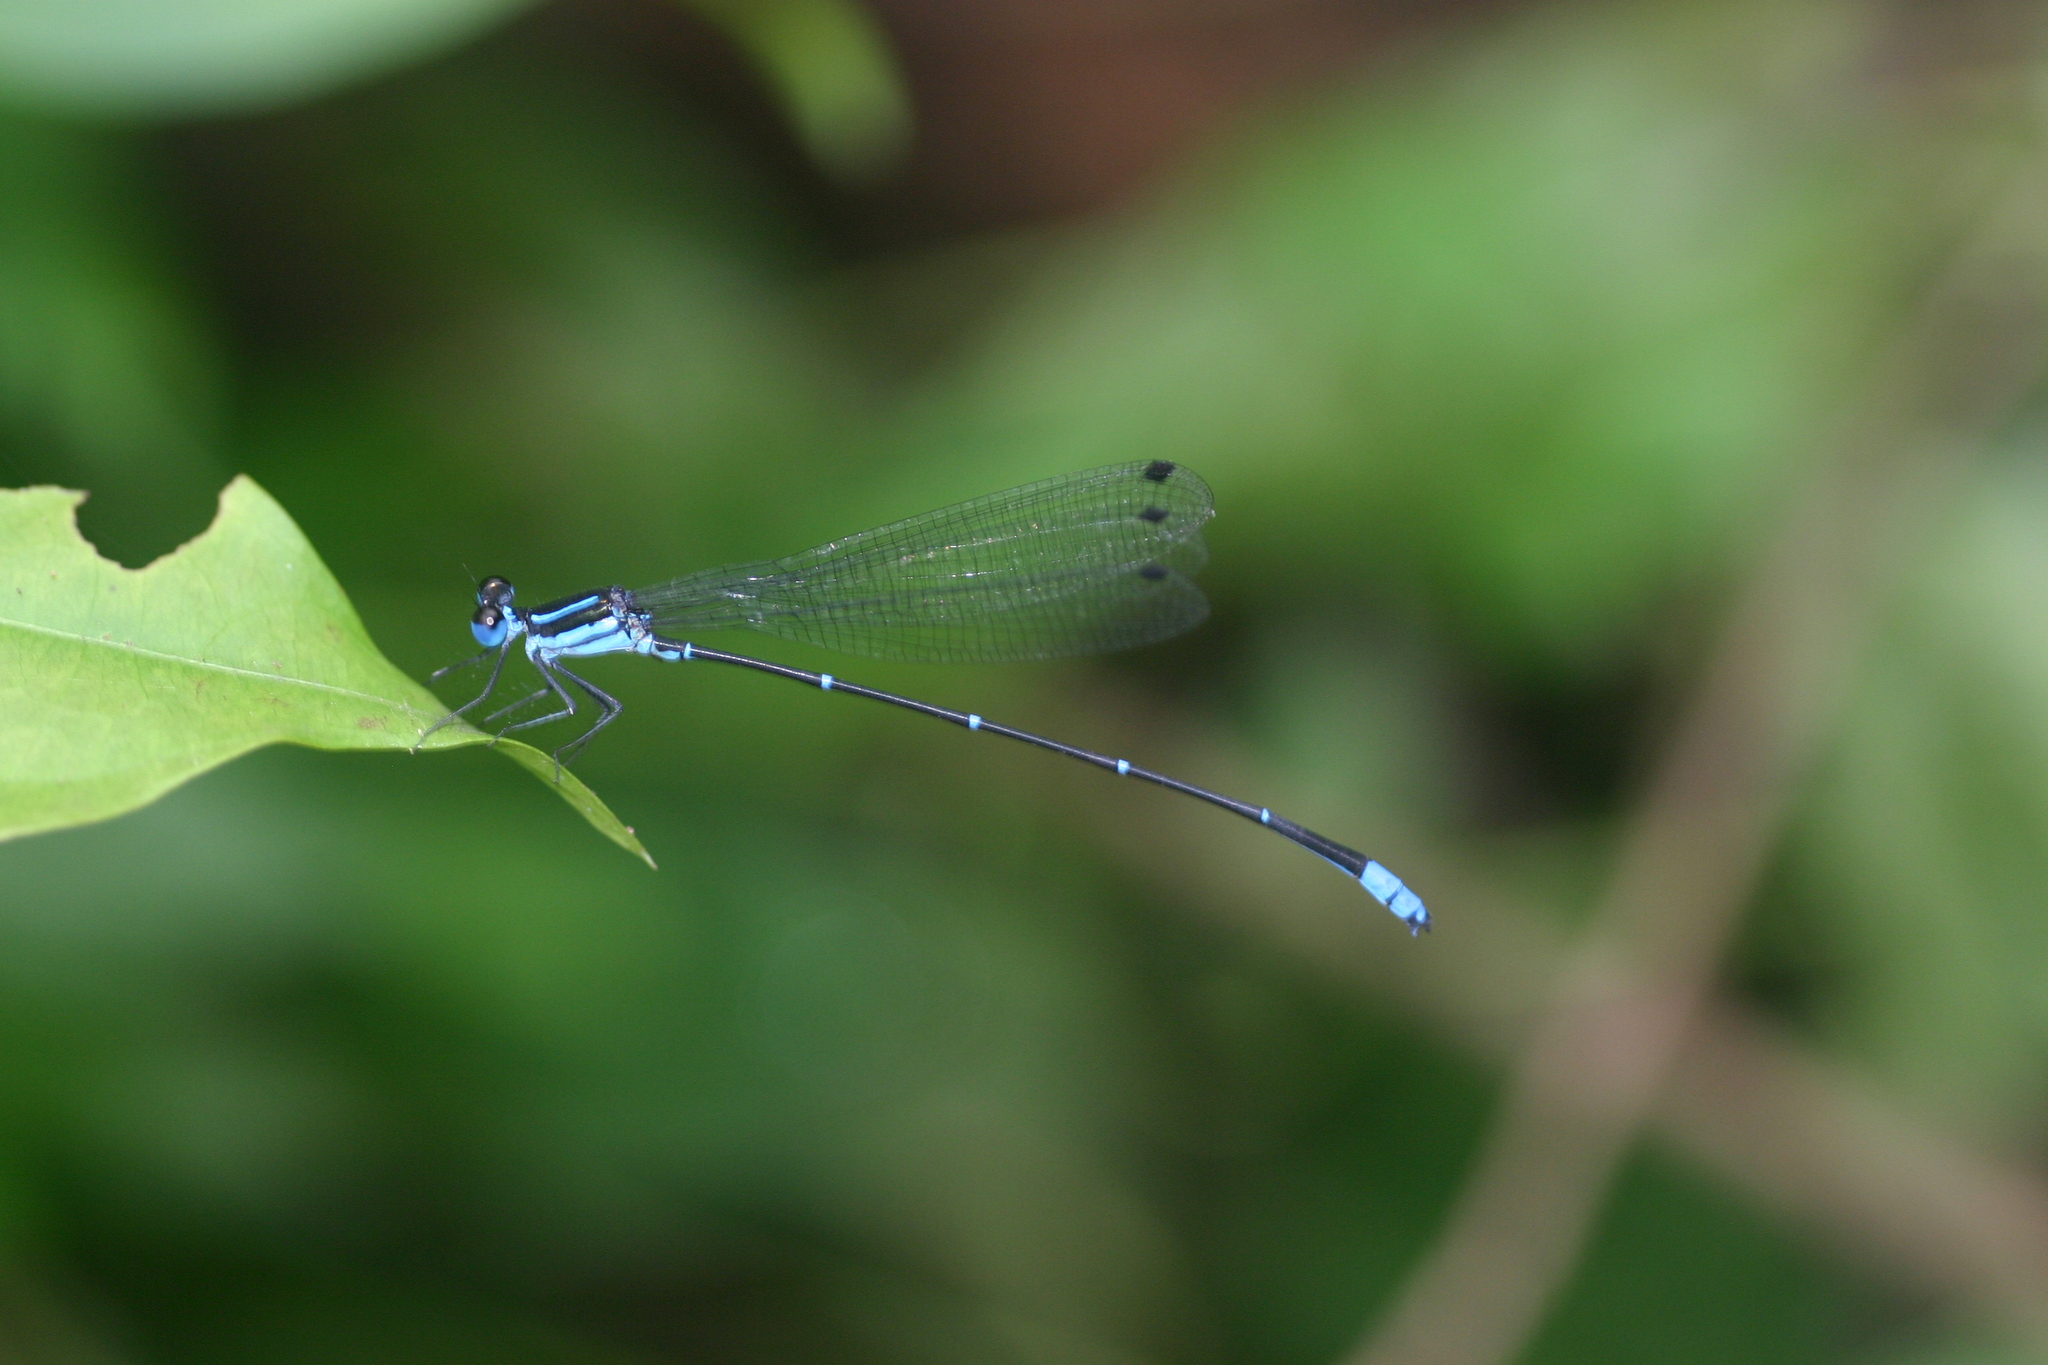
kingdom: Animalia
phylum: Arthropoda
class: Insecta
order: Odonata
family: Platycnemididae
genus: Caconeura
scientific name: Caconeura ramburi
